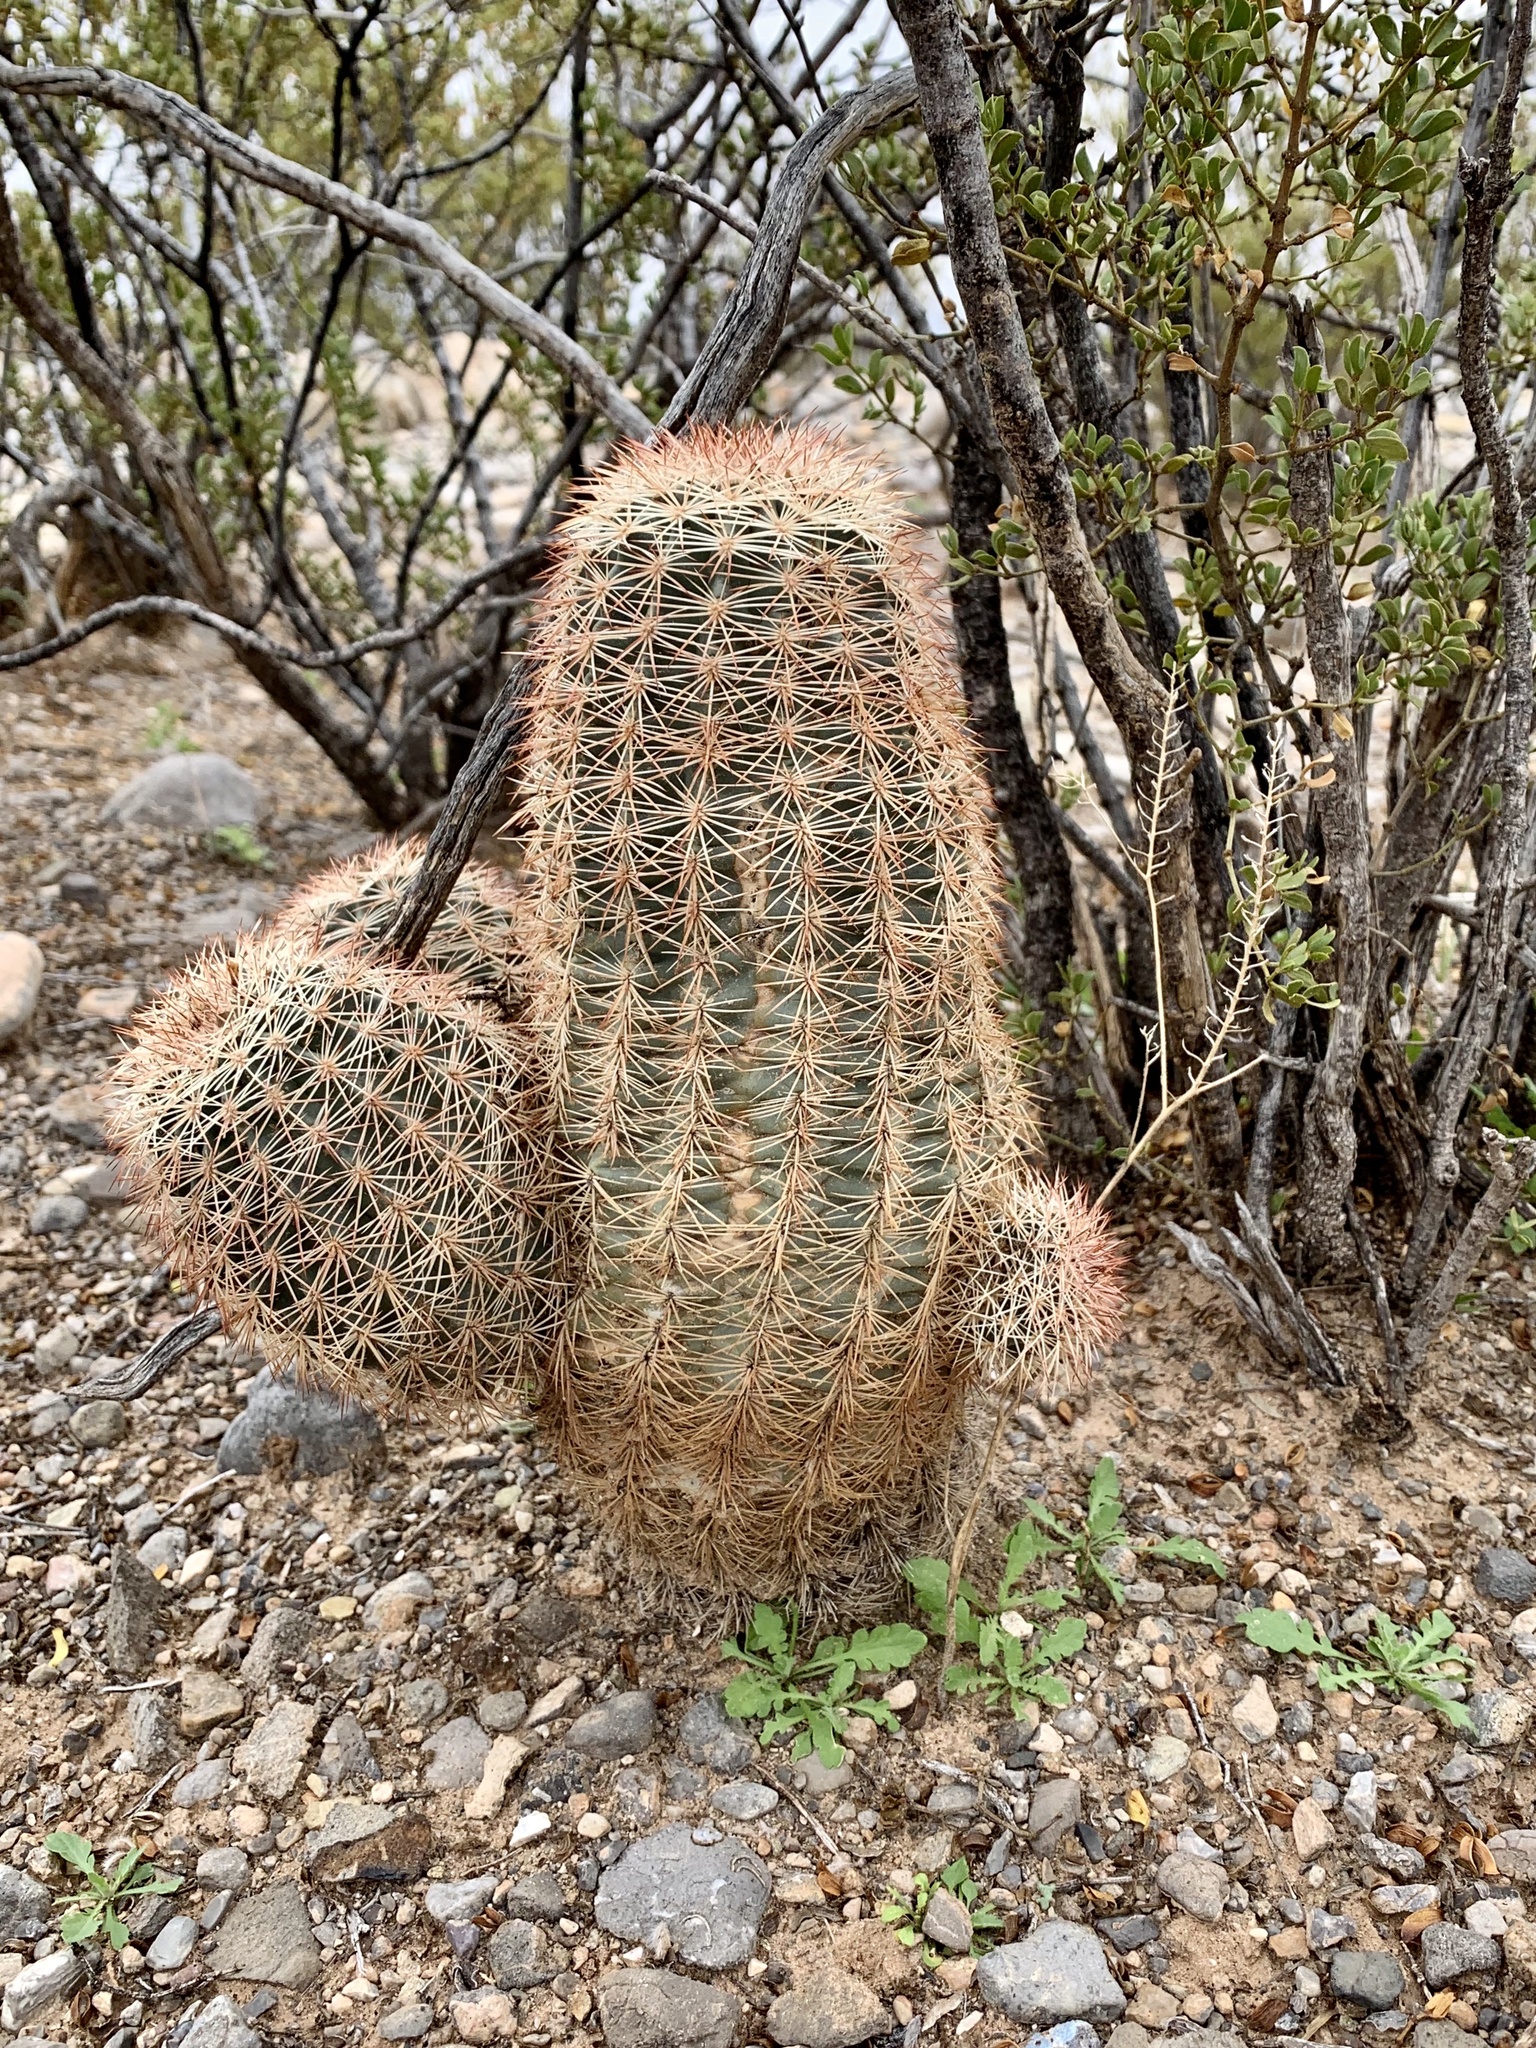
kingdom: Plantae
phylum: Tracheophyta
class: Magnoliopsida
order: Caryophyllales
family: Cactaceae
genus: Echinocereus
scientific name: Echinocereus dasyacanthus
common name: Spiny hedgehog cactus
